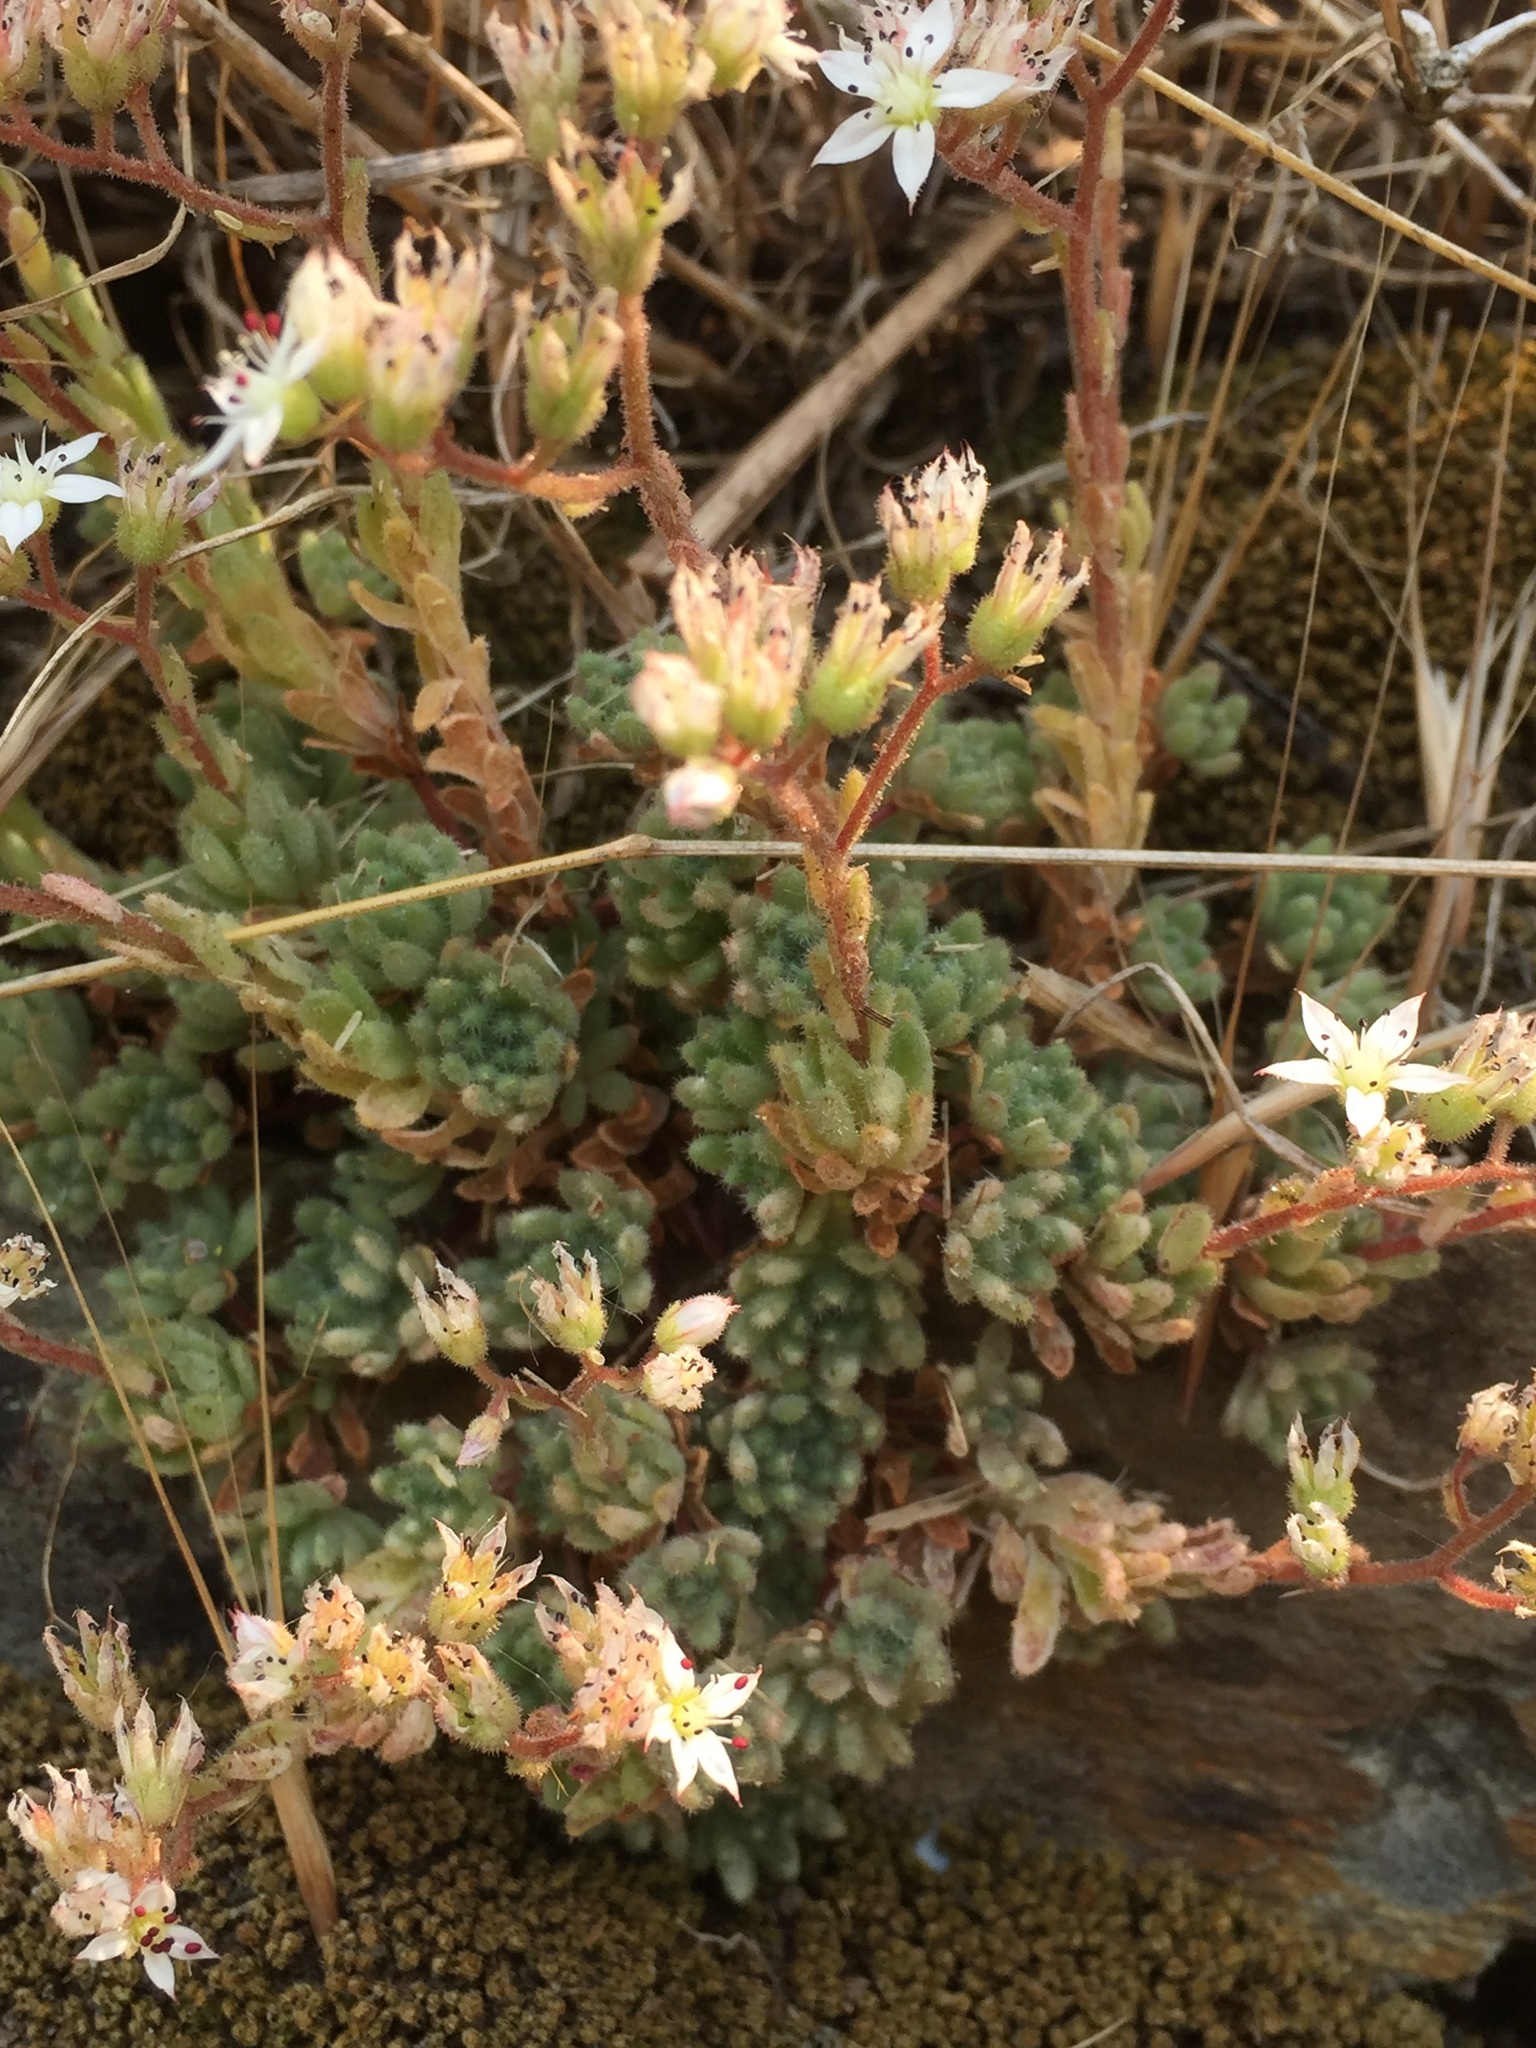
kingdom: Plantae
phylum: Tracheophyta
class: Magnoliopsida
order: Saxifragales
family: Crassulaceae
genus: Sedum
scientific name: Sedum hirsutum
